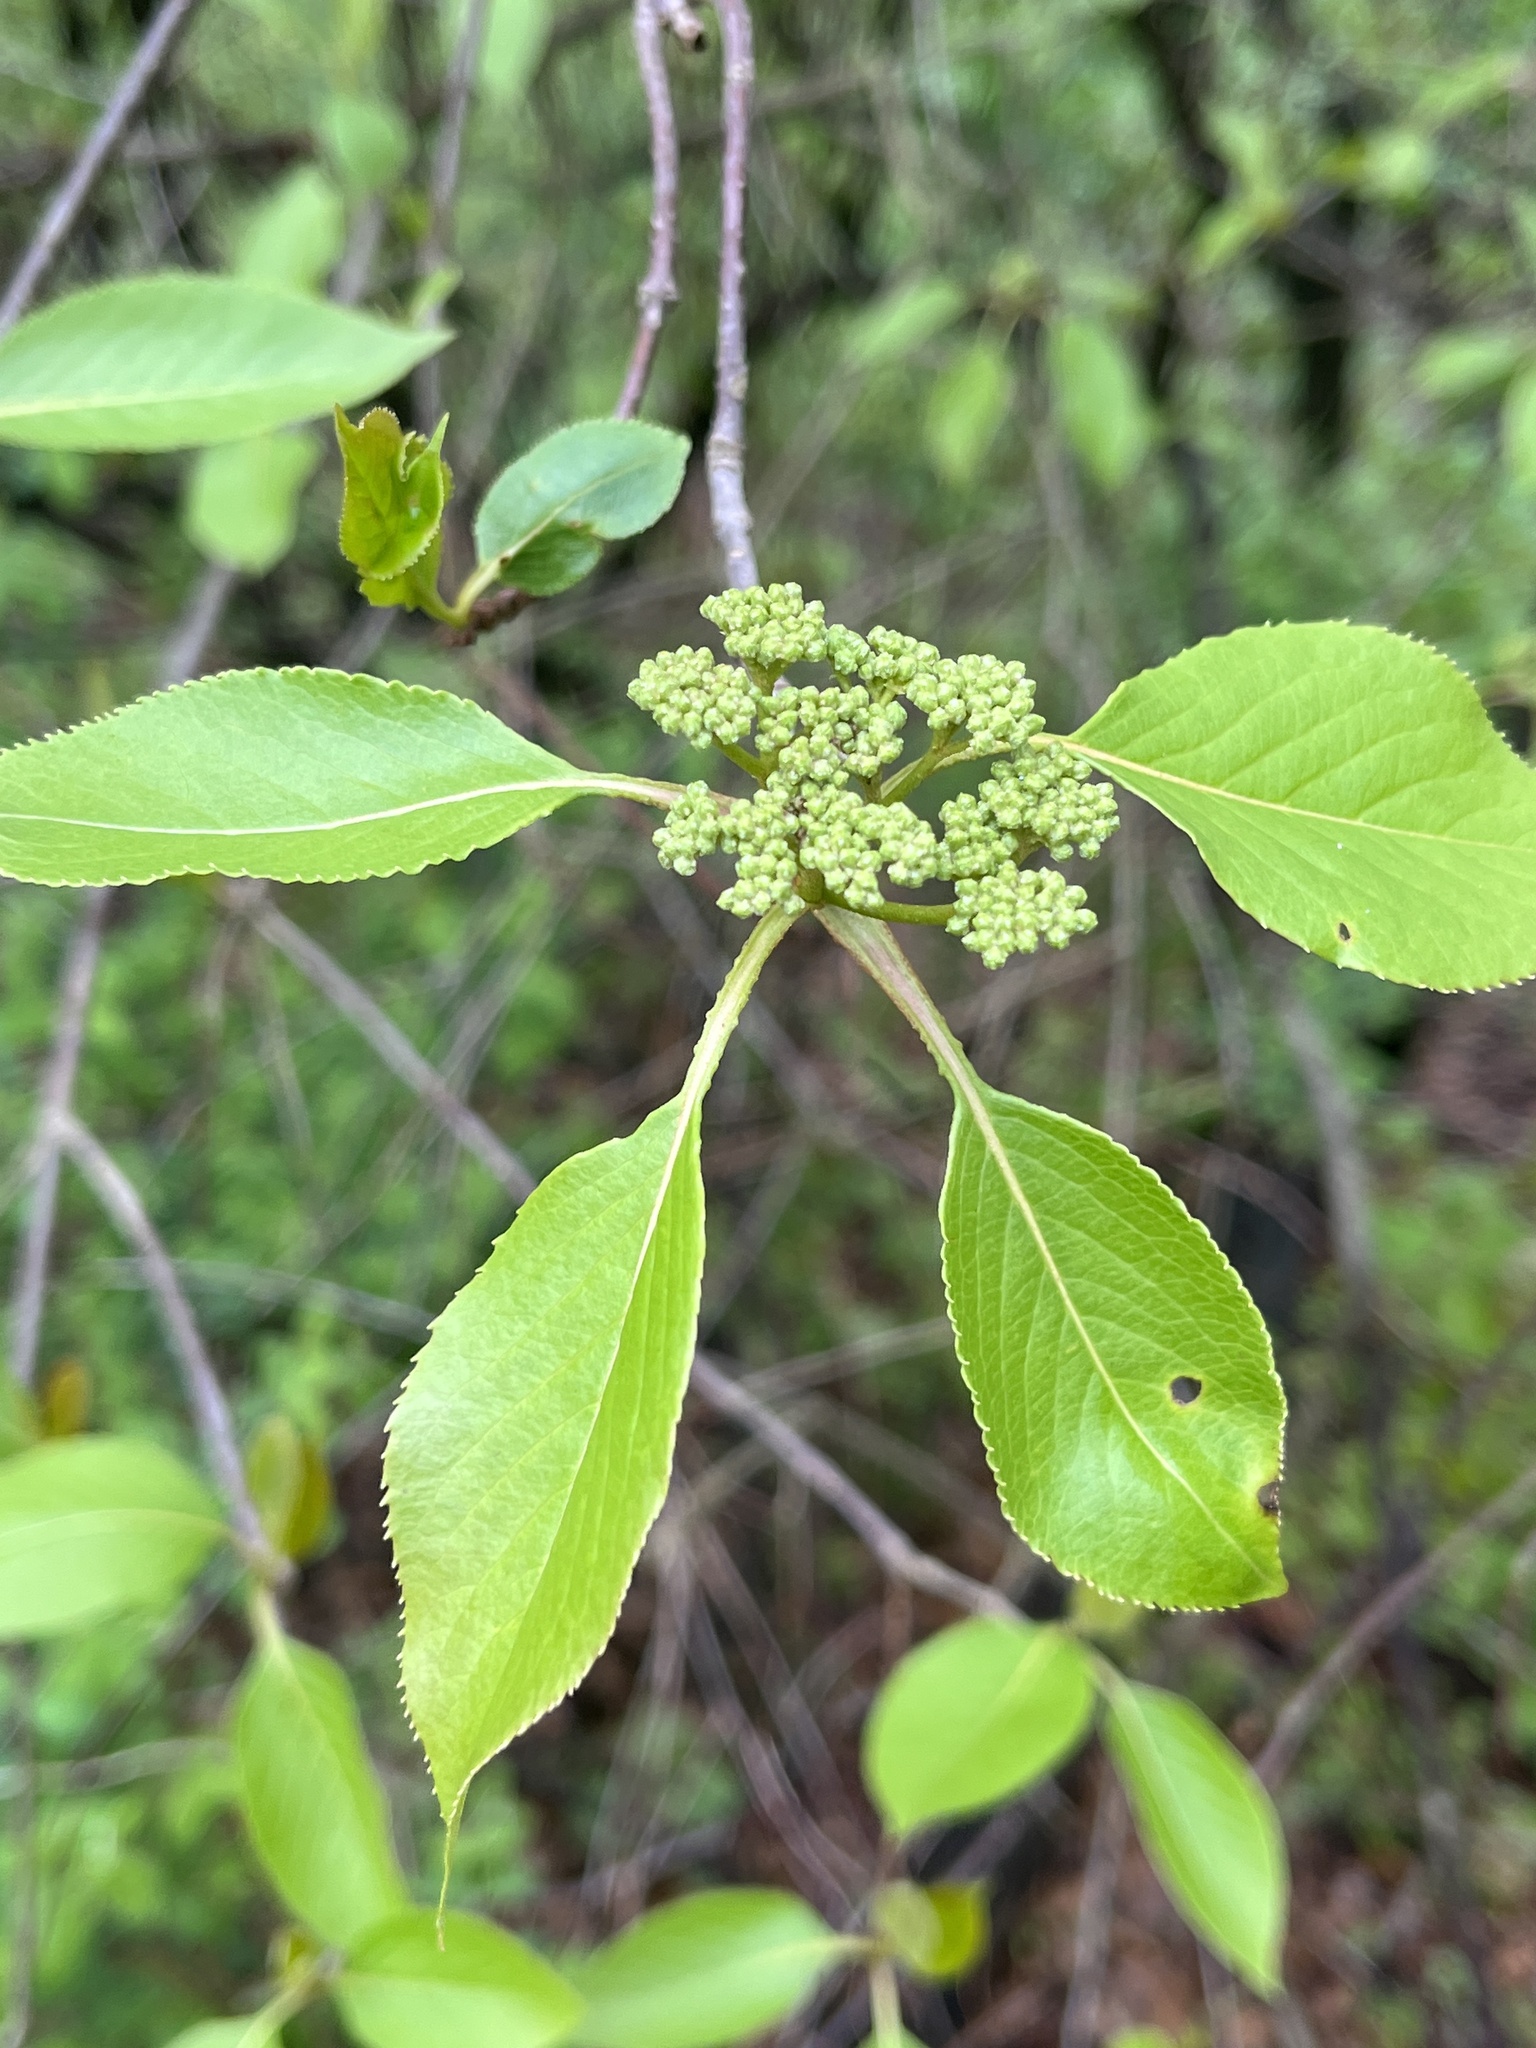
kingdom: Plantae
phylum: Tracheophyta
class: Magnoliopsida
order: Dipsacales
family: Viburnaceae
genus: Viburnum
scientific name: Viburnum lentago
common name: Black haw
